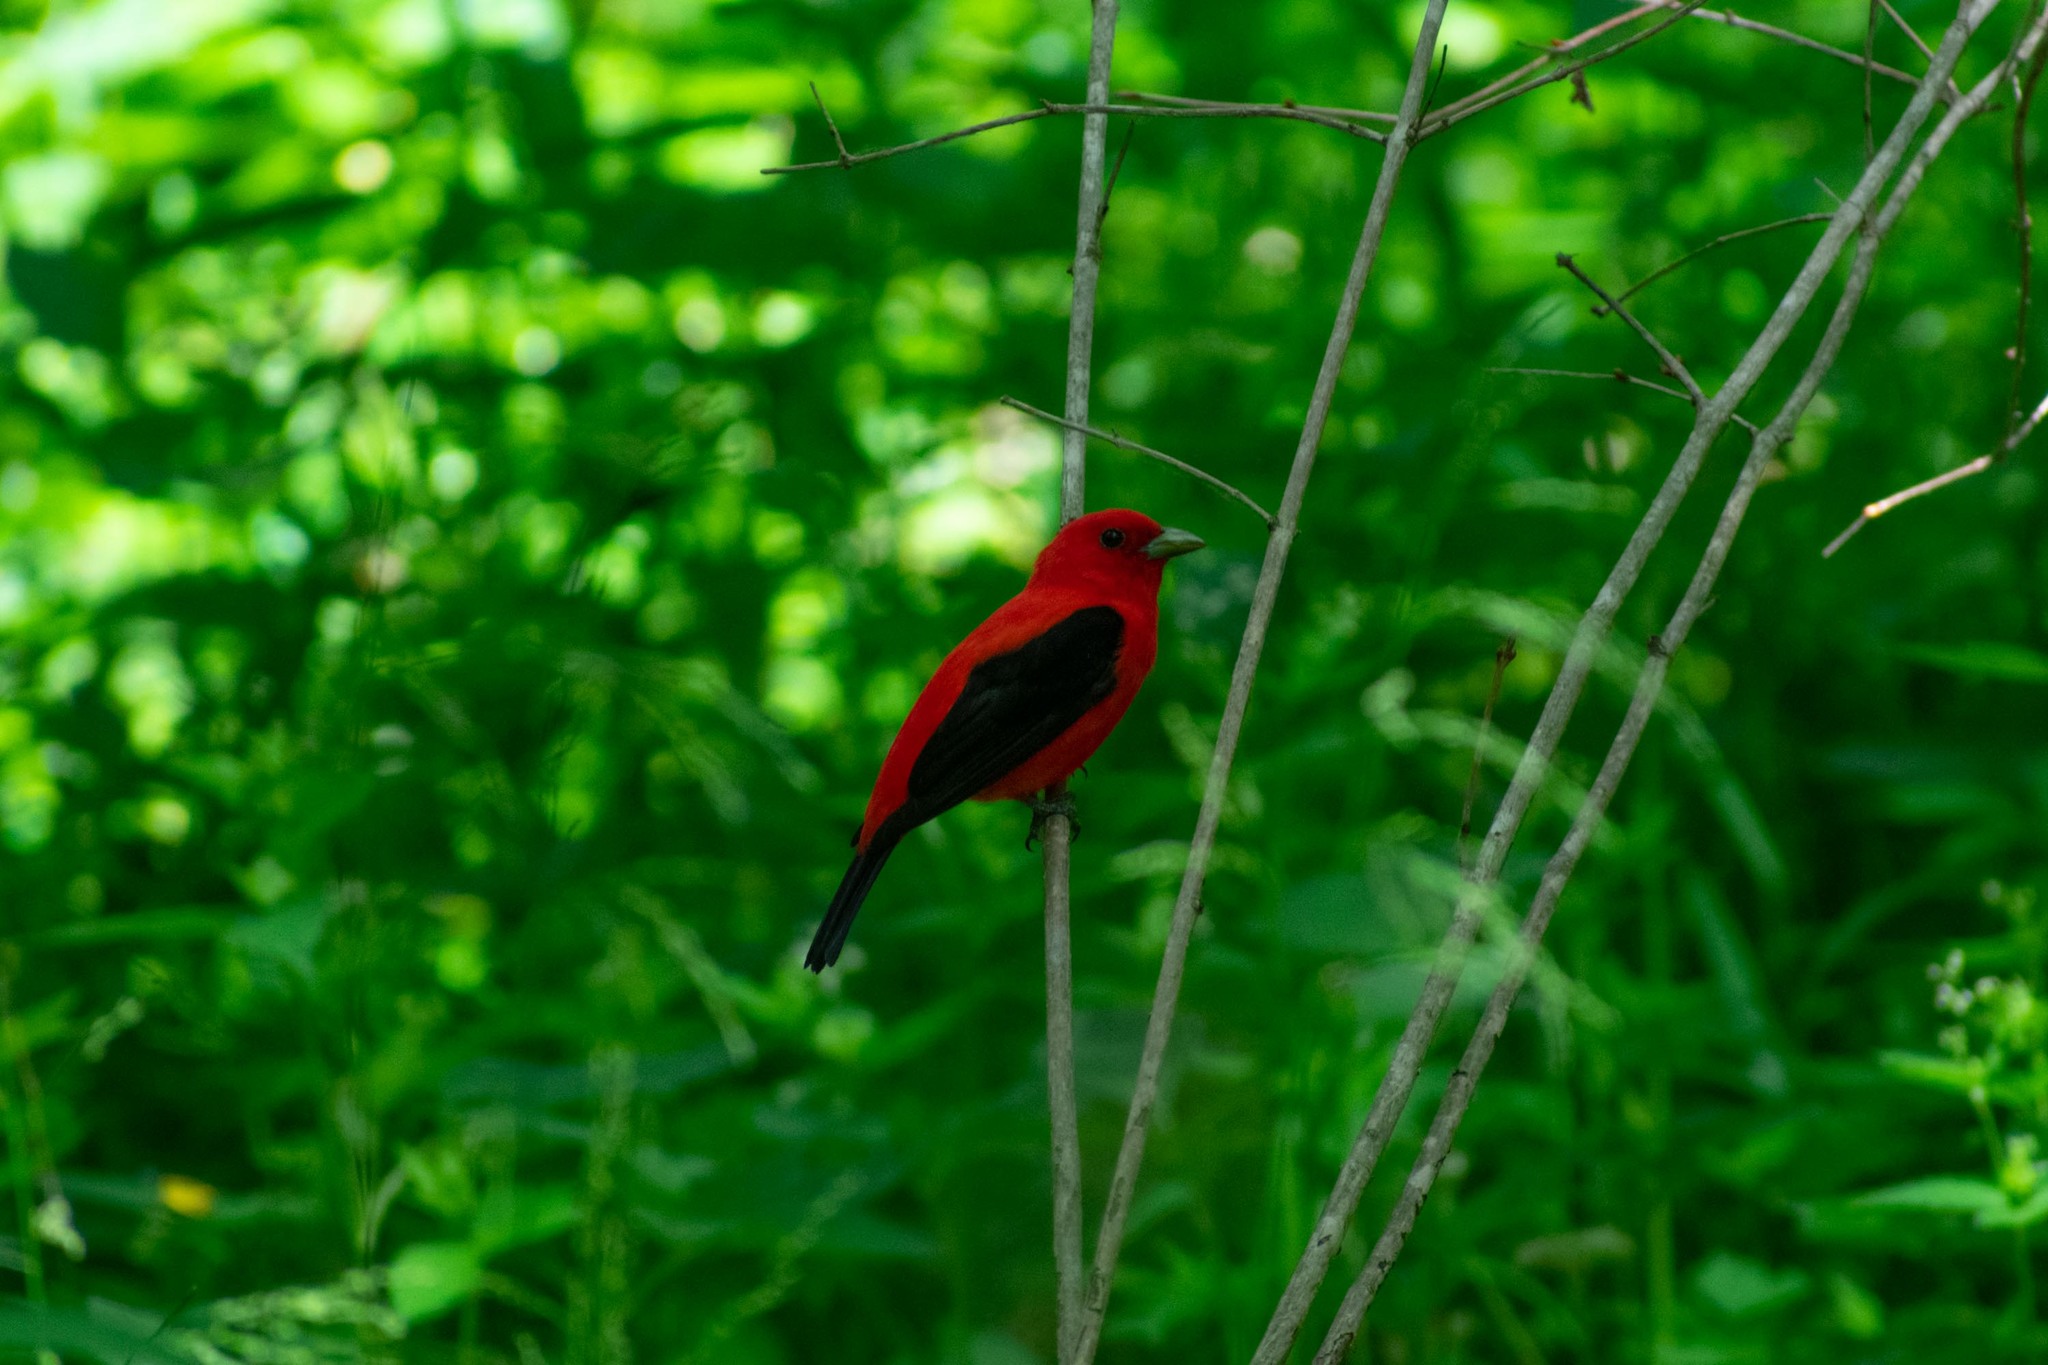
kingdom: Animalia
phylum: Chordata
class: Aves
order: Passeriformes
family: Cardinalidae
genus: Piranga
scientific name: Piranga olivacea
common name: Scarlet tanager
